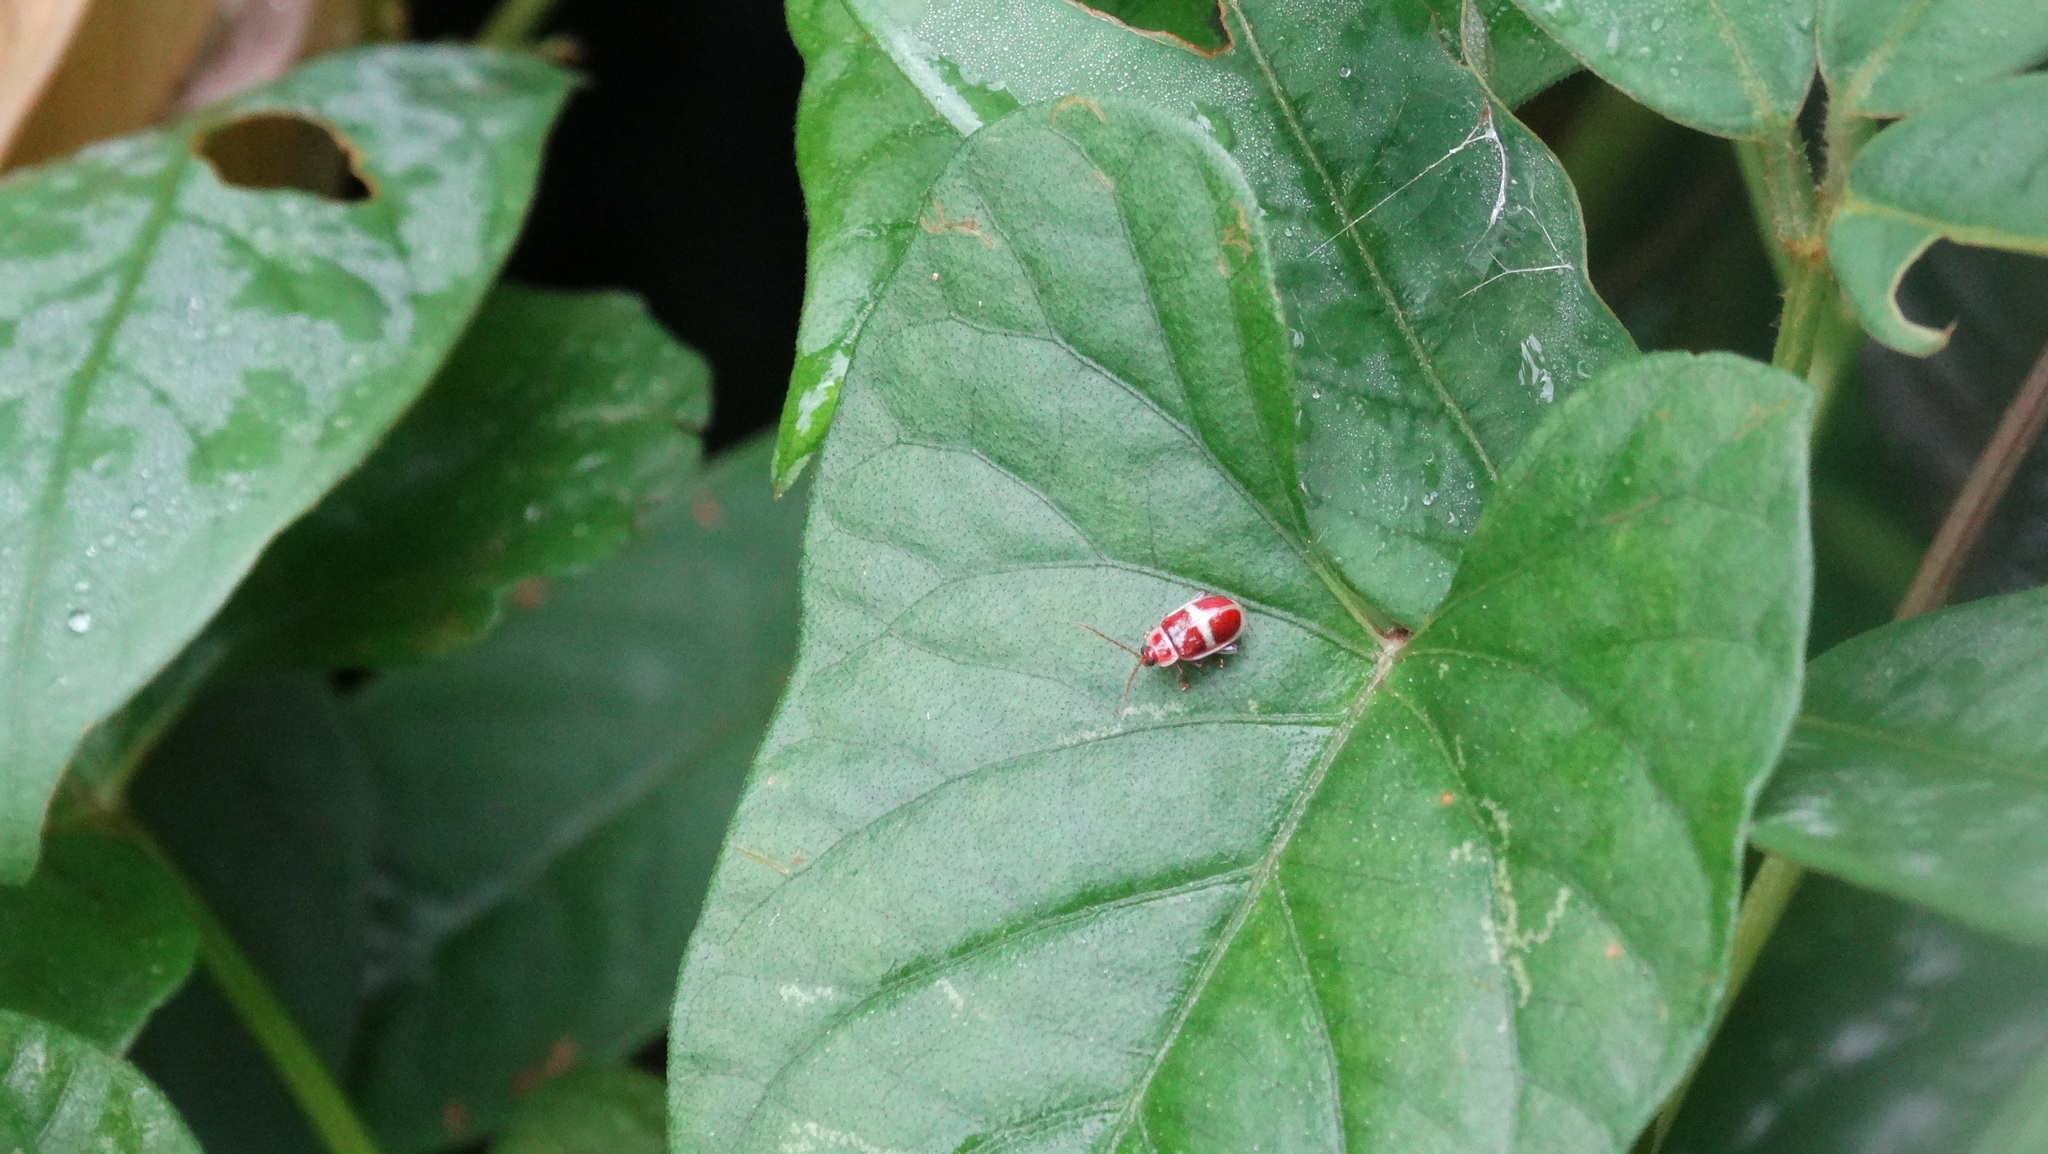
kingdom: Animalia
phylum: Arthropoda
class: Insecta
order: Coleoptera
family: Chrysomelidae
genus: Asphaera
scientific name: Asphaera discicollis
